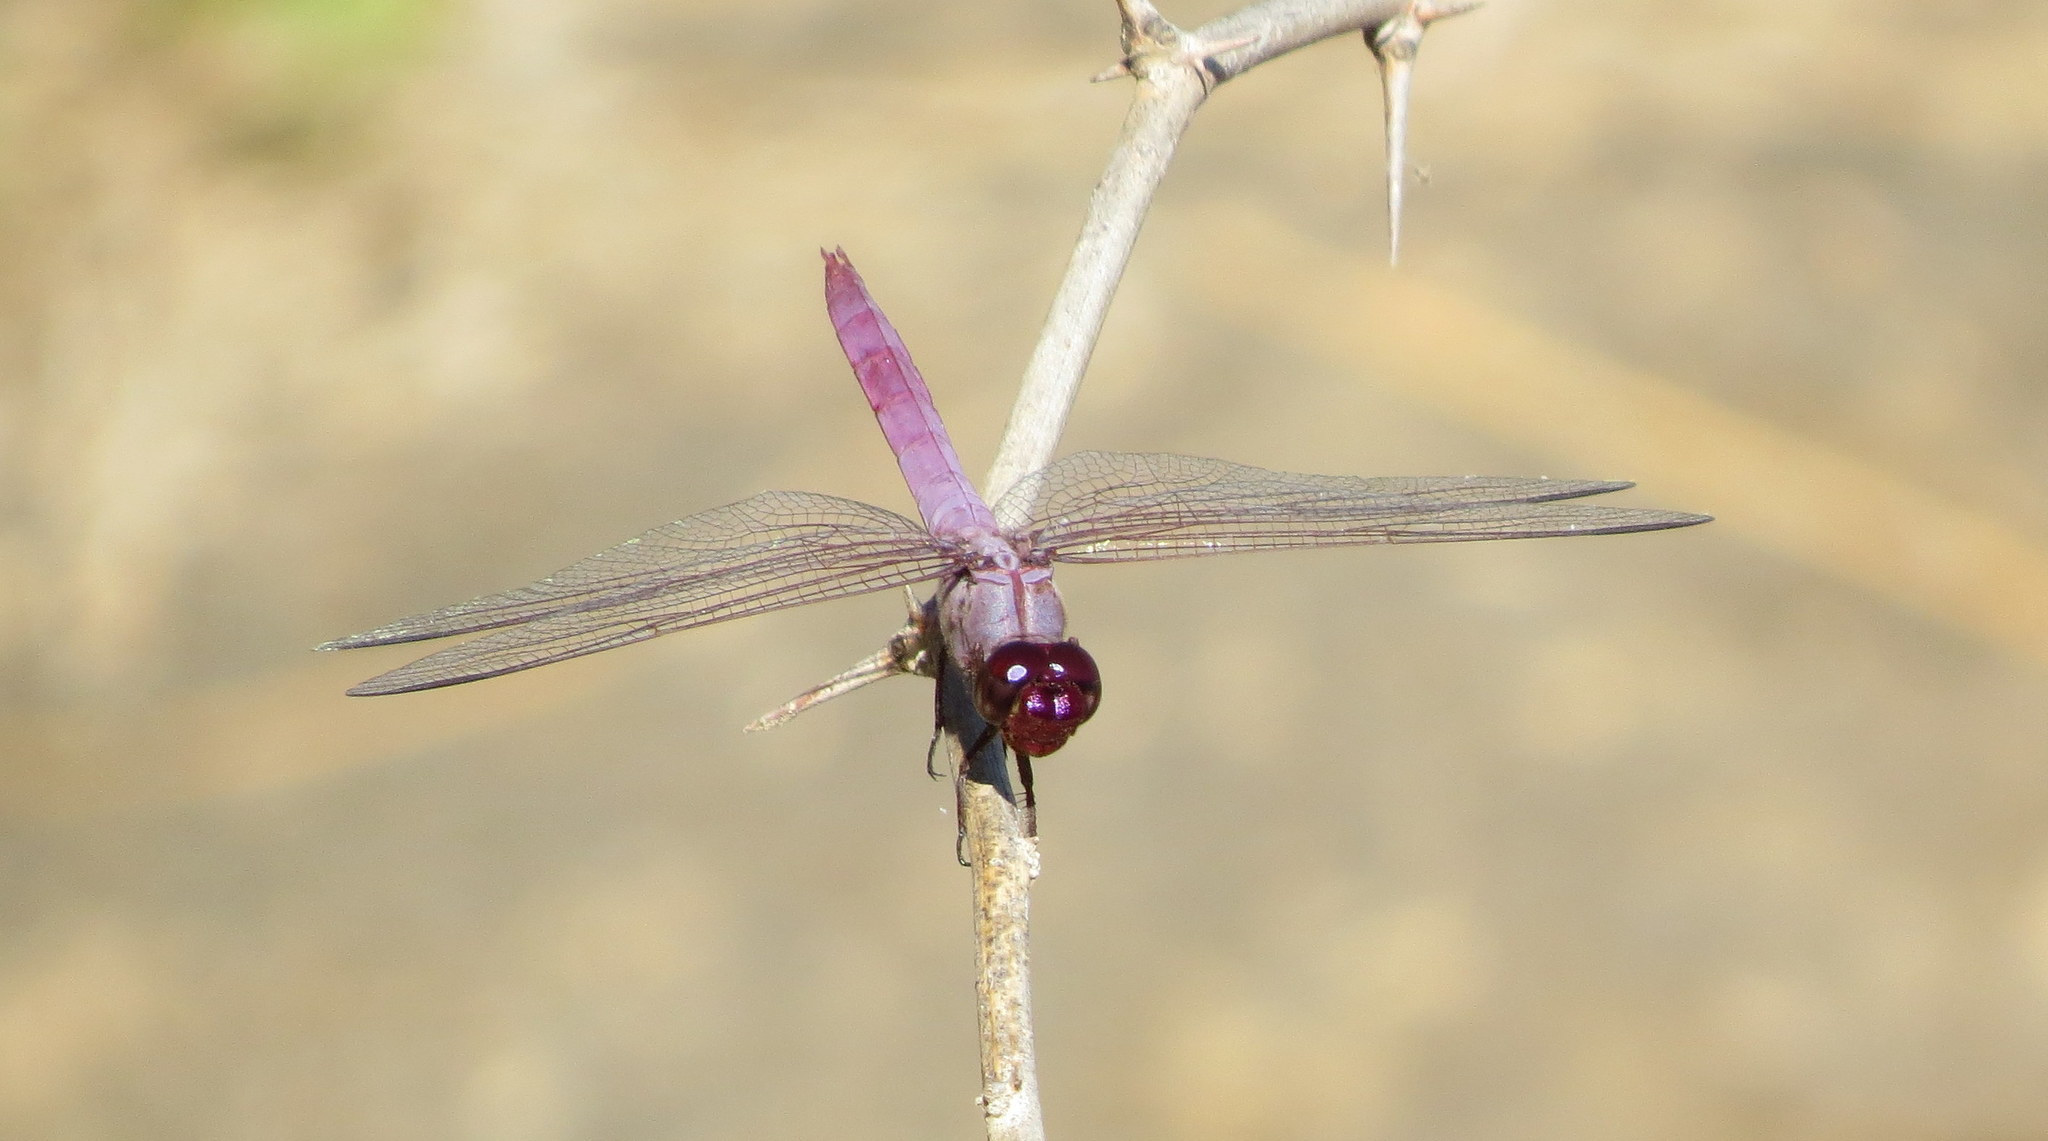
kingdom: Animalia
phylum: Arthropoda
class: Insecta
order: Odonata
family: Libellulidae
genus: Orthemis
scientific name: Orthemis ferruginea
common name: Roseate skimmer
